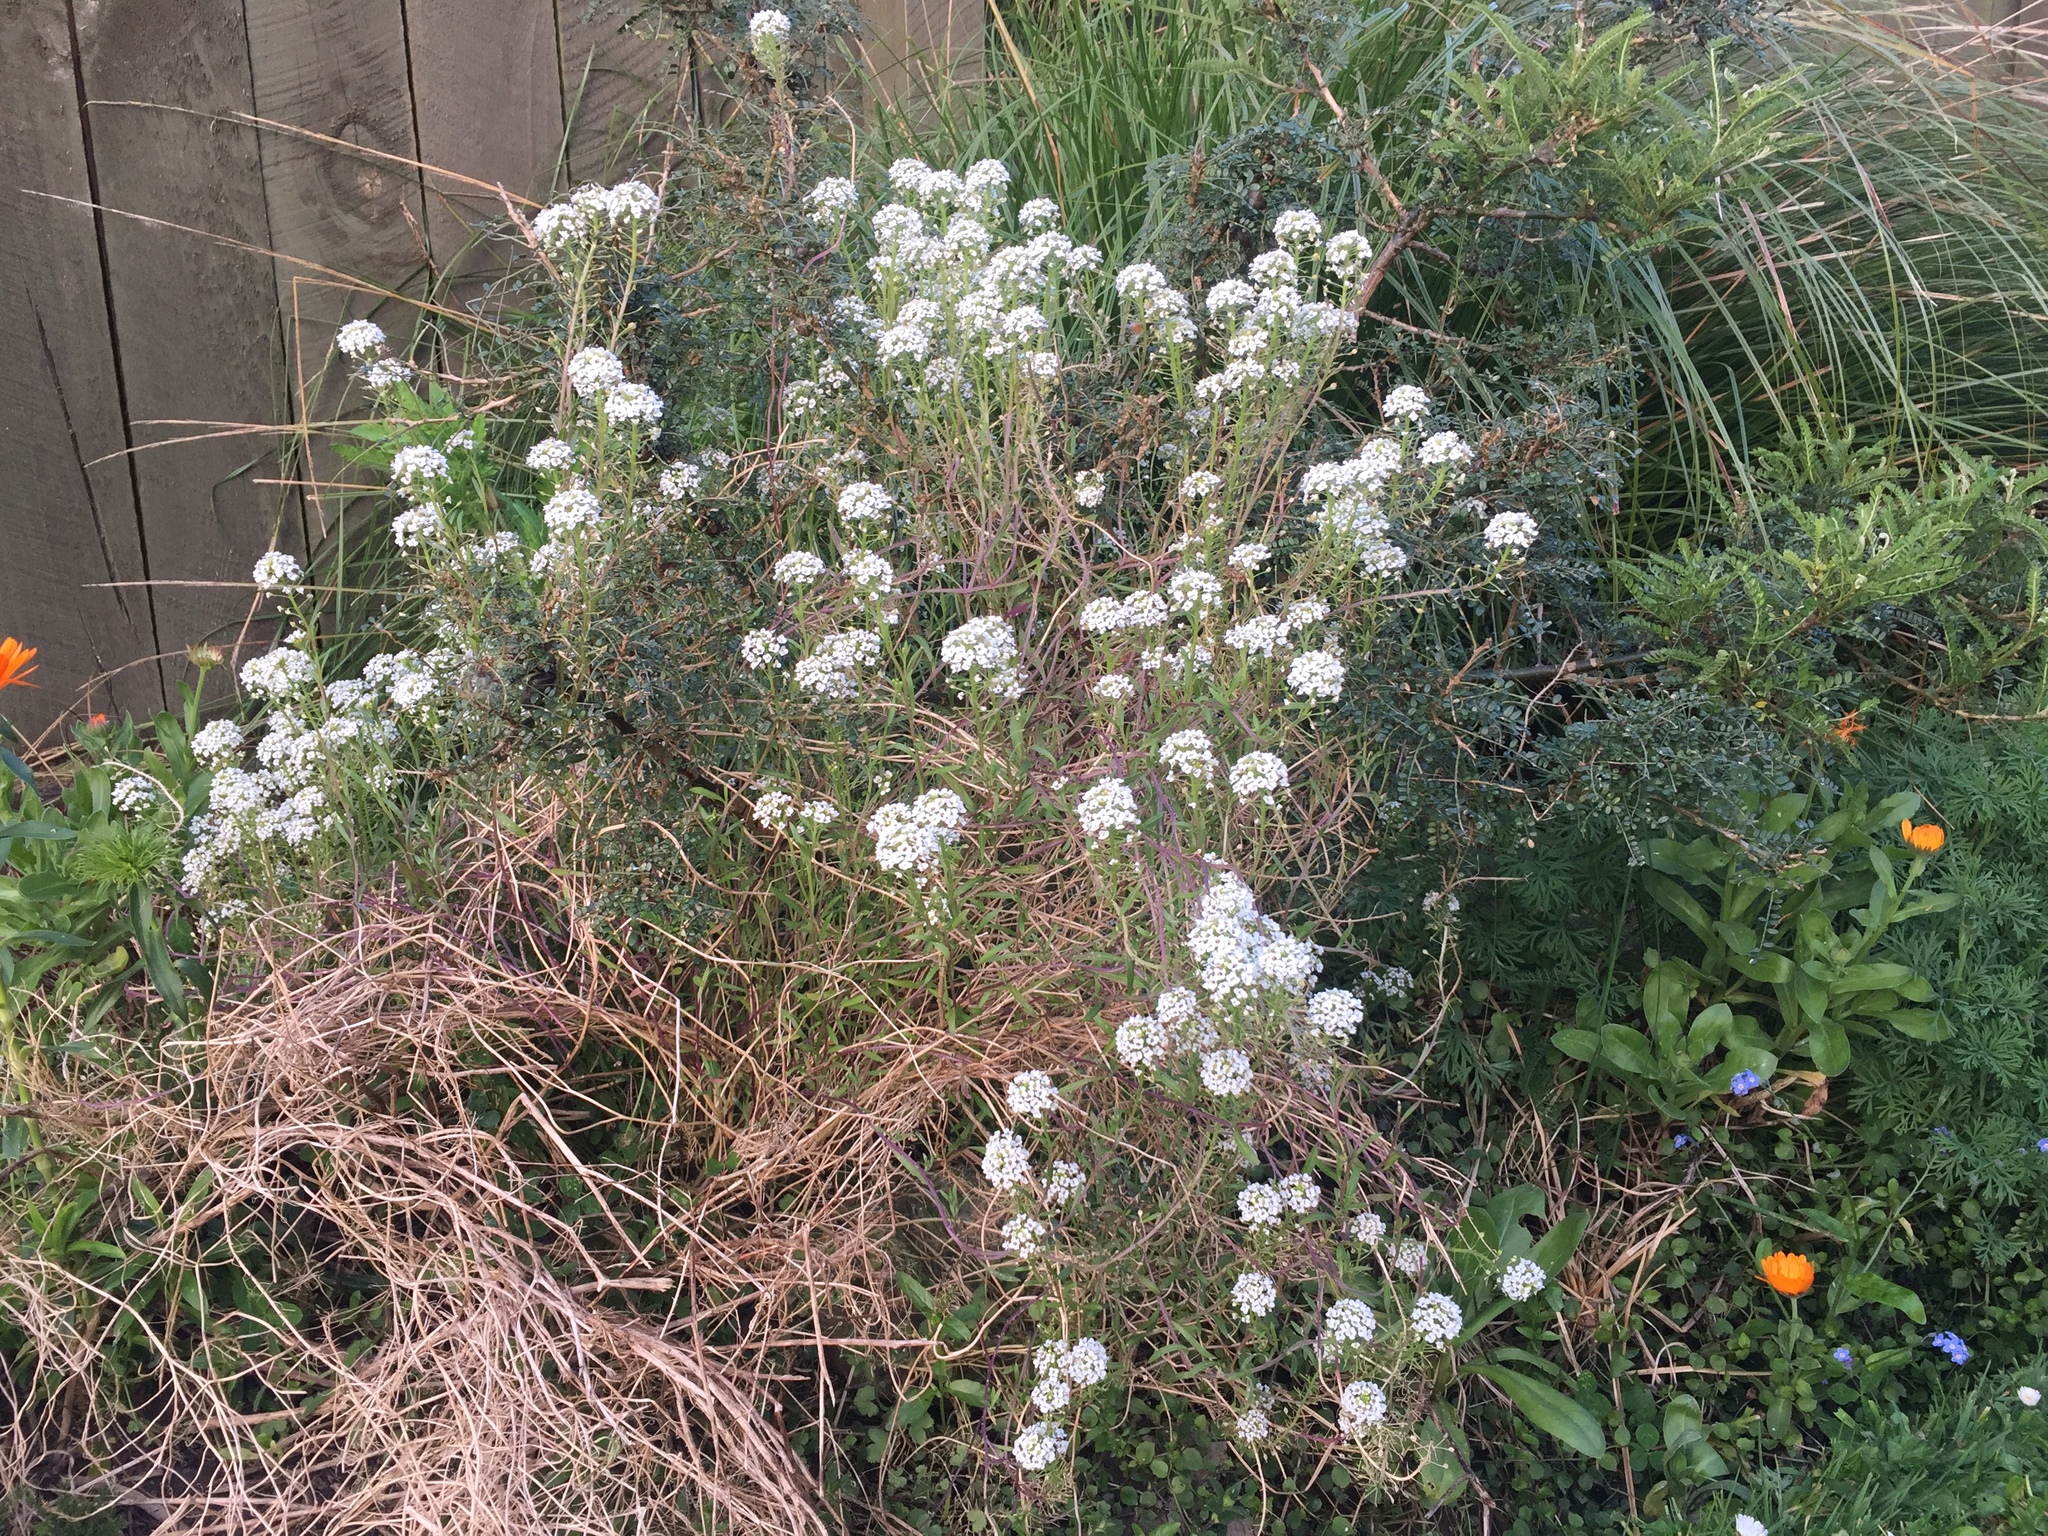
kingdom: Plantae
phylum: Tracheophyta
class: Magnoliopsida
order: Brassicales
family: Brassicaceae
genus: Lobularia
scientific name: Lobularia maritima
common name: Sweet alison
